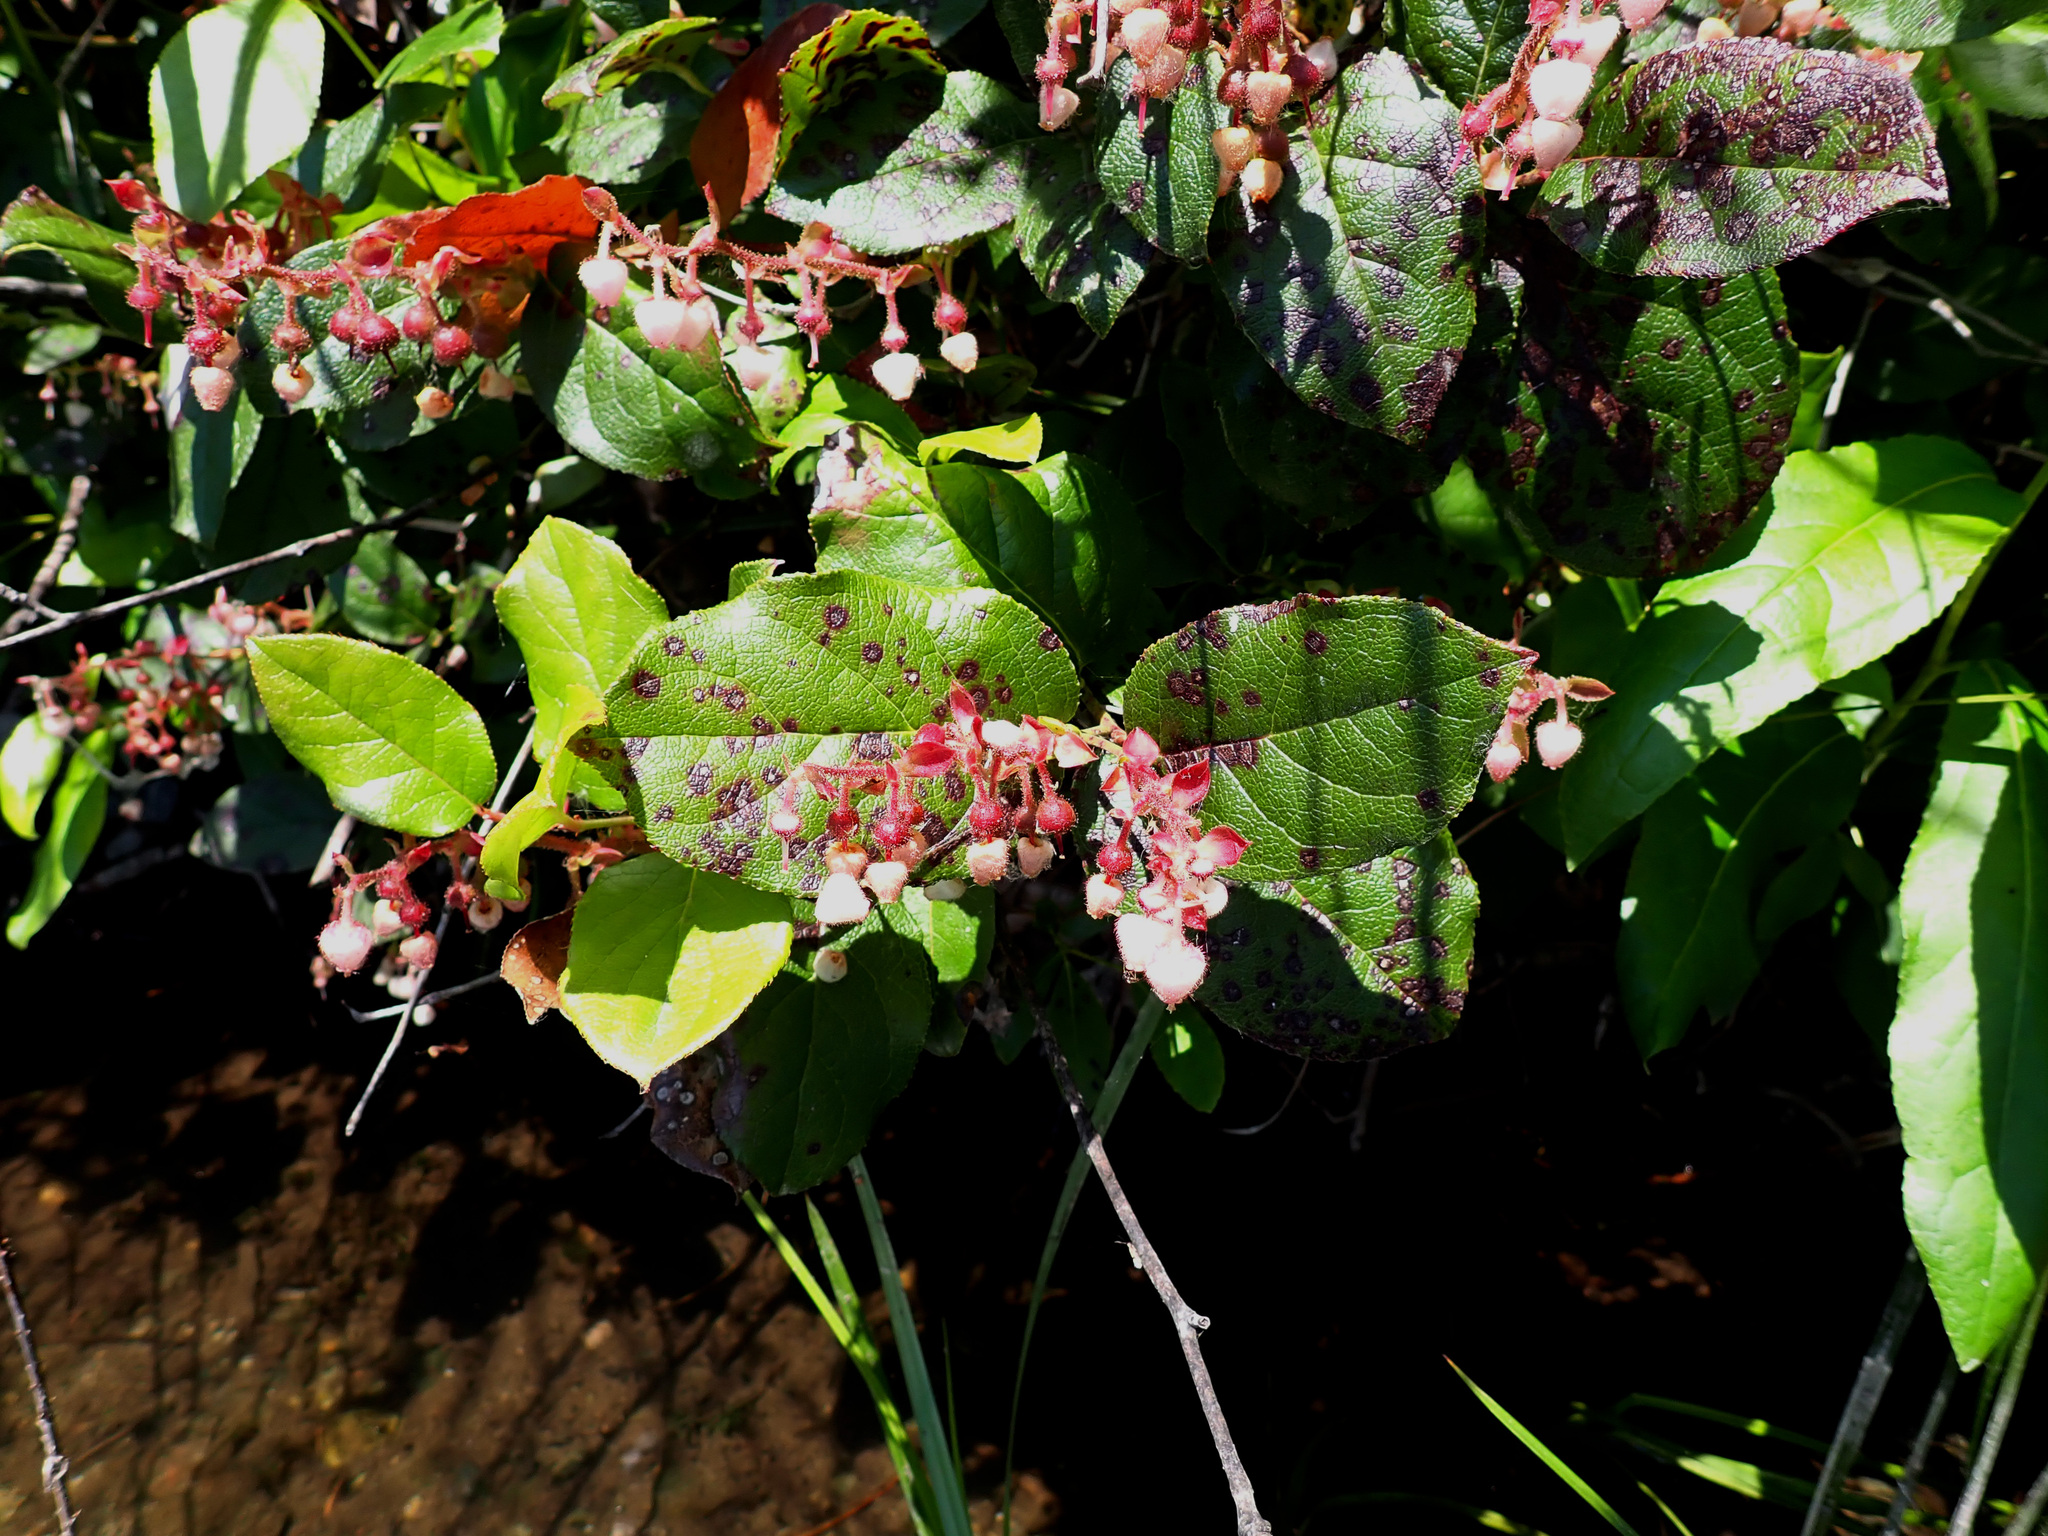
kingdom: Plantae
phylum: Tracheophyta
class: Magnoliopsida
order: Ericales
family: Ericaceae
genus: Gaultheria
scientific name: Gaultheria shallon
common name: Shallon
